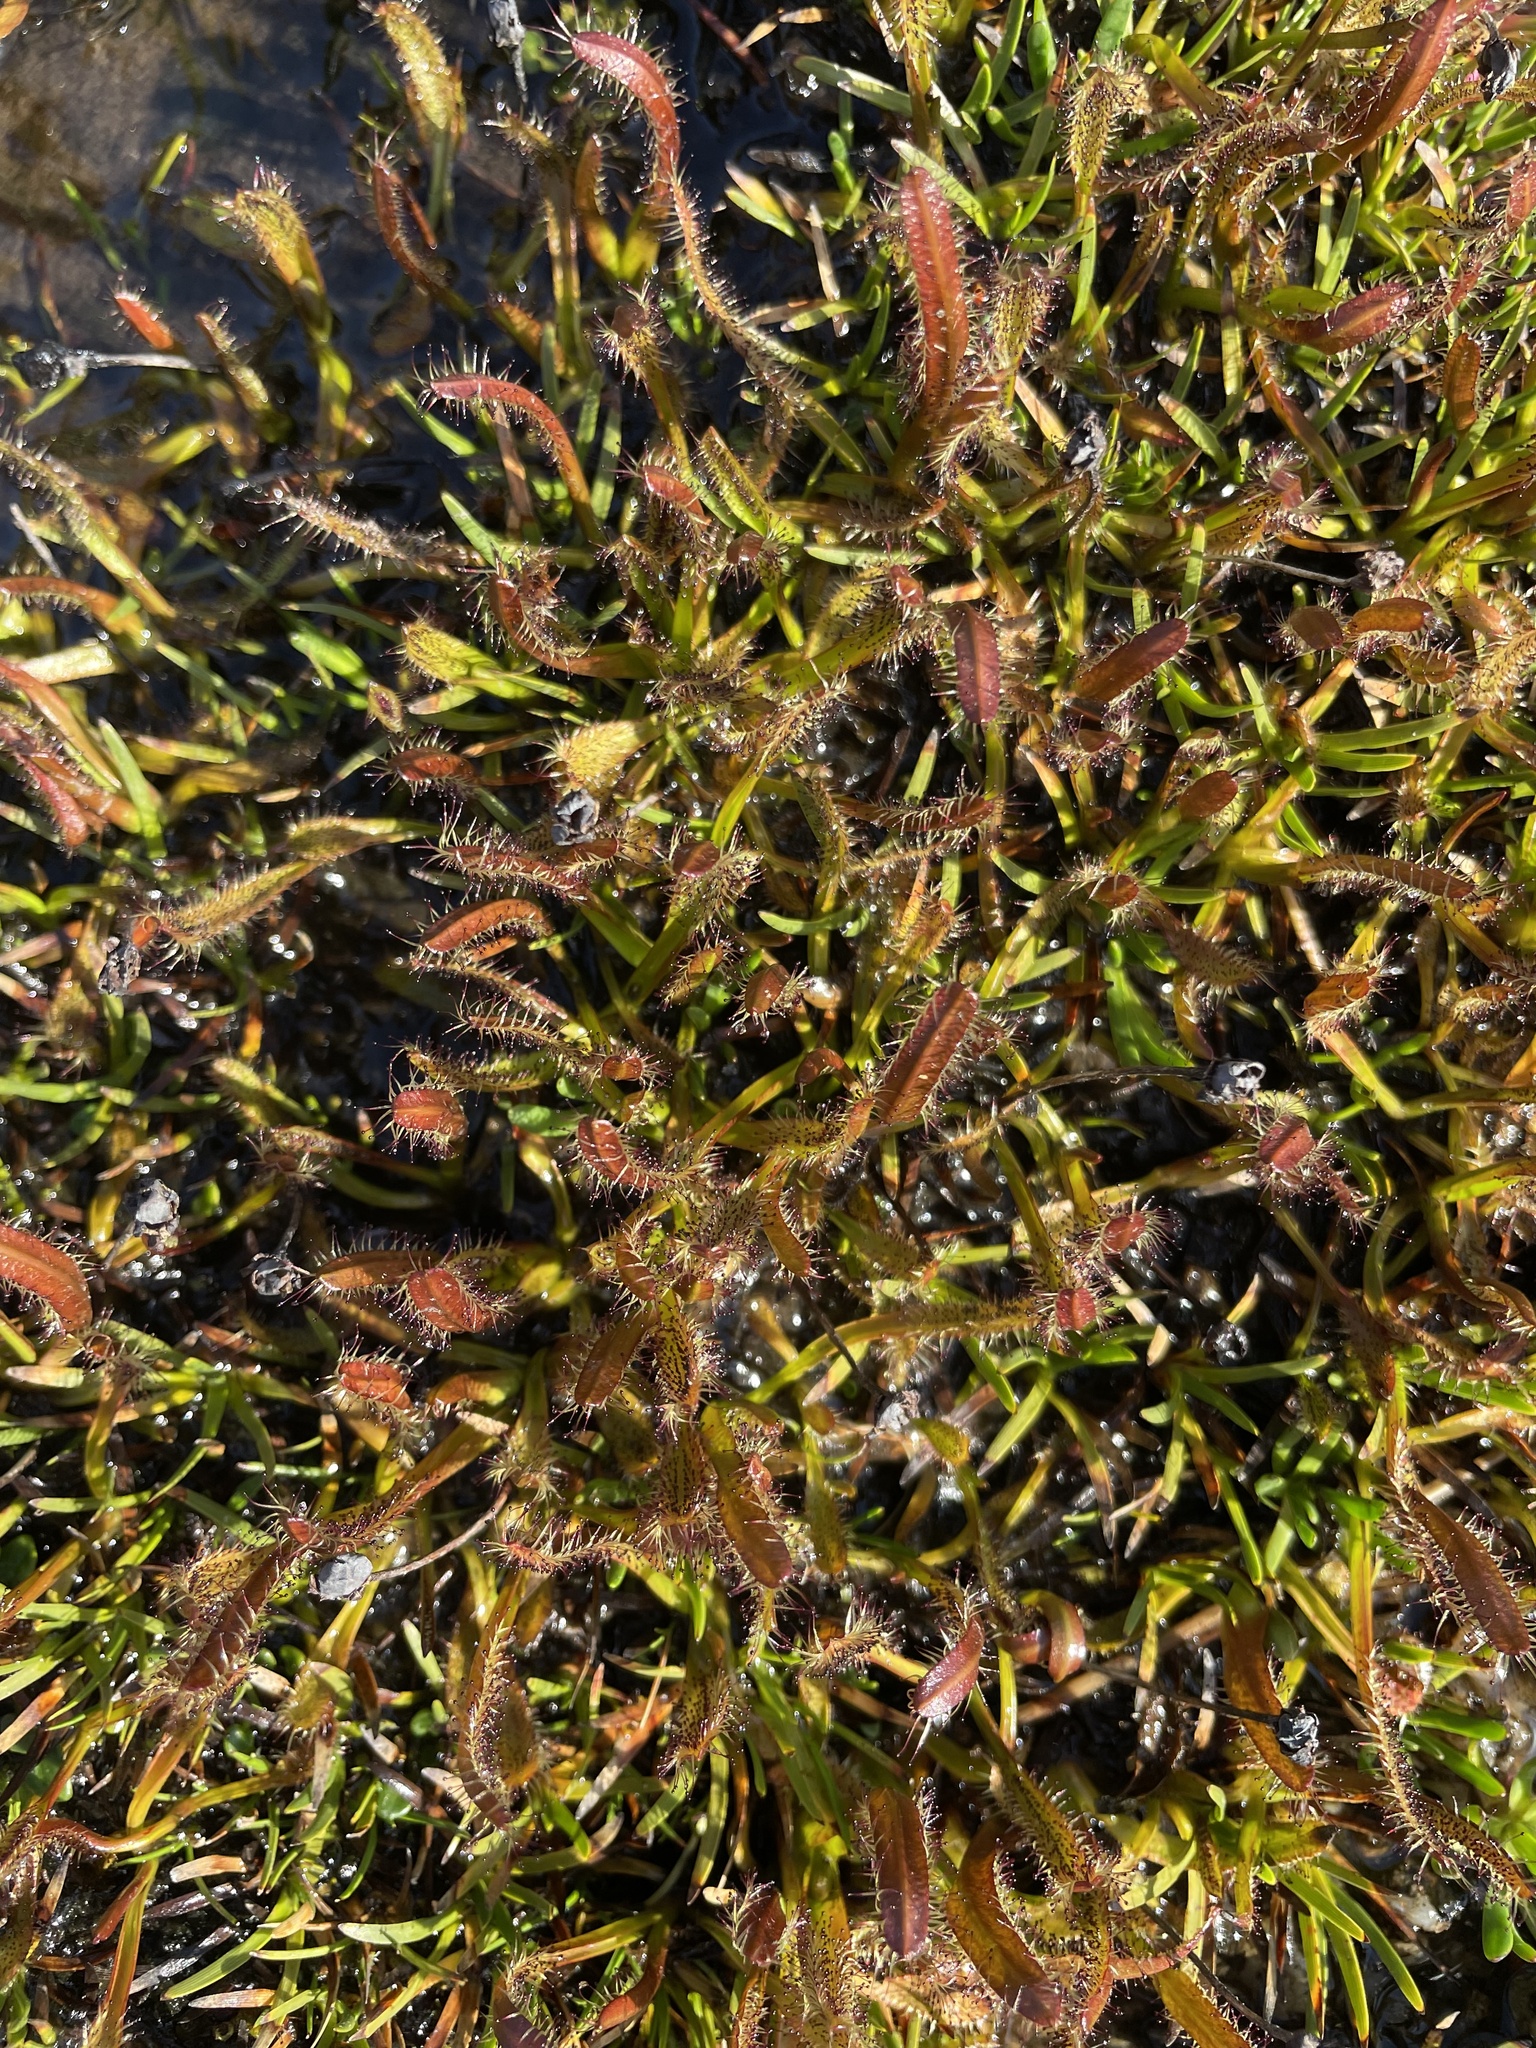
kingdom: Plantae
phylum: Tracheophyta
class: Magnoliopsida
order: Caryophyllales
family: Droseraceae
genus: Drosera
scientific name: Drosera arcturi
